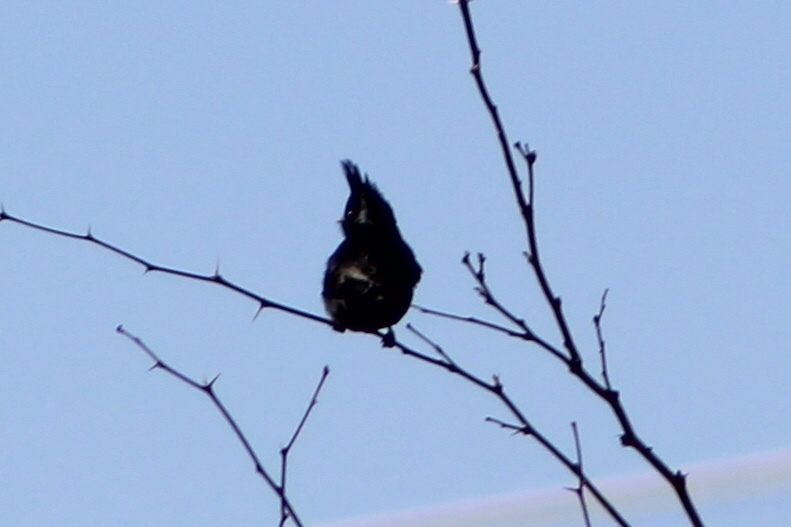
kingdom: Animalia
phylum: Chordata
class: Aves
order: Passeriformes
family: Ptilogonatidae
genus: Phainopepla
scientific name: Phainopepla nitens
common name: Phainopepla
